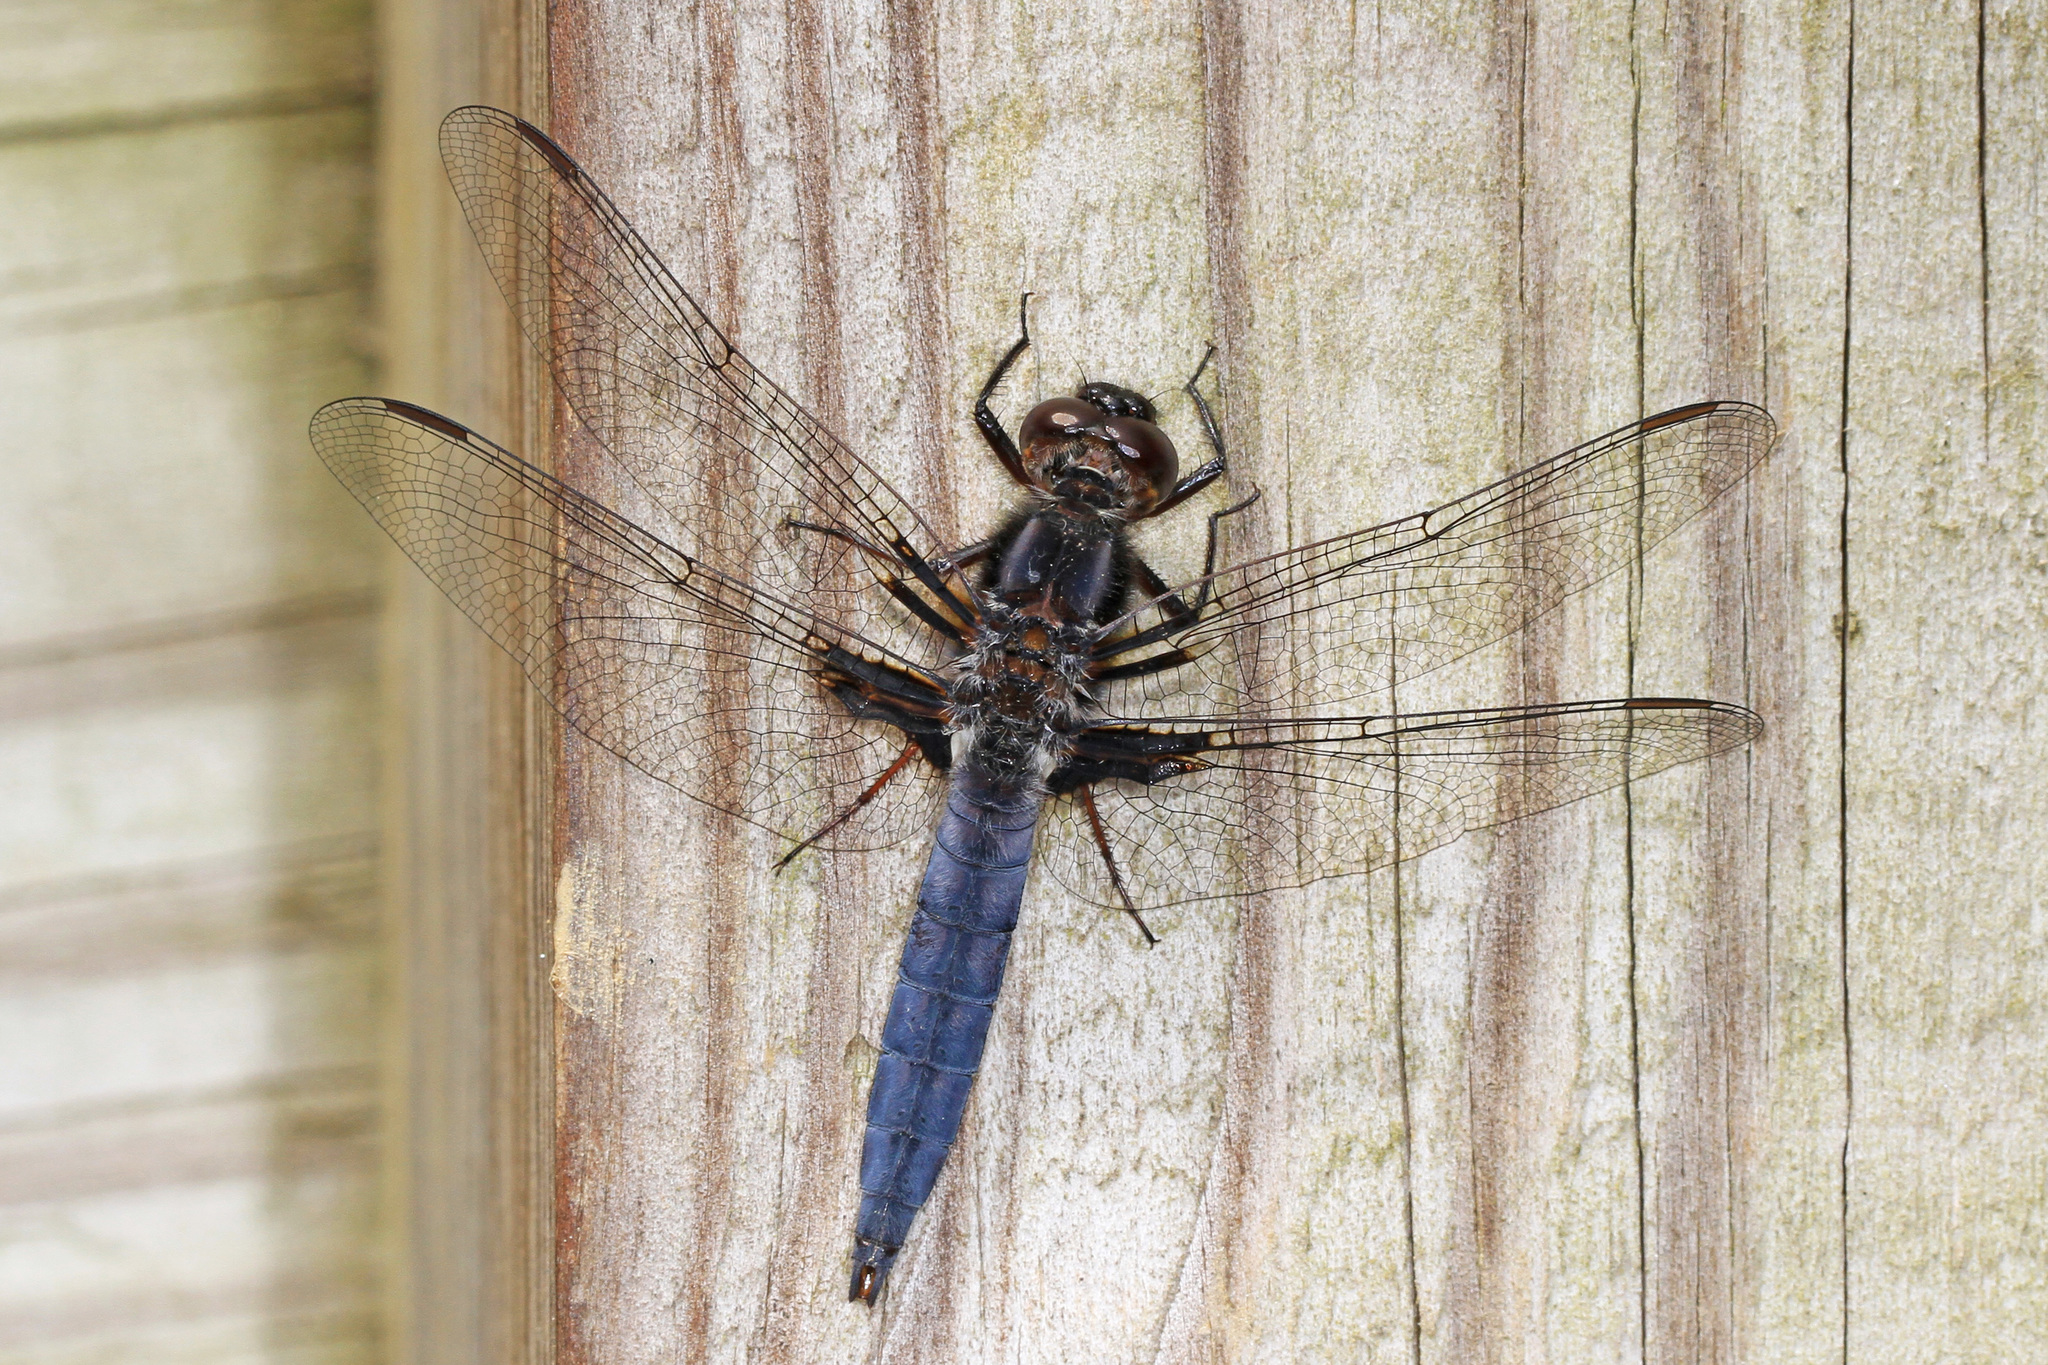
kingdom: Animalia
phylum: Arthropoda
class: Insecta
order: Odonata
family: Libellulidae
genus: Ladona
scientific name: Ladona deplanata
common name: Blue corporal
